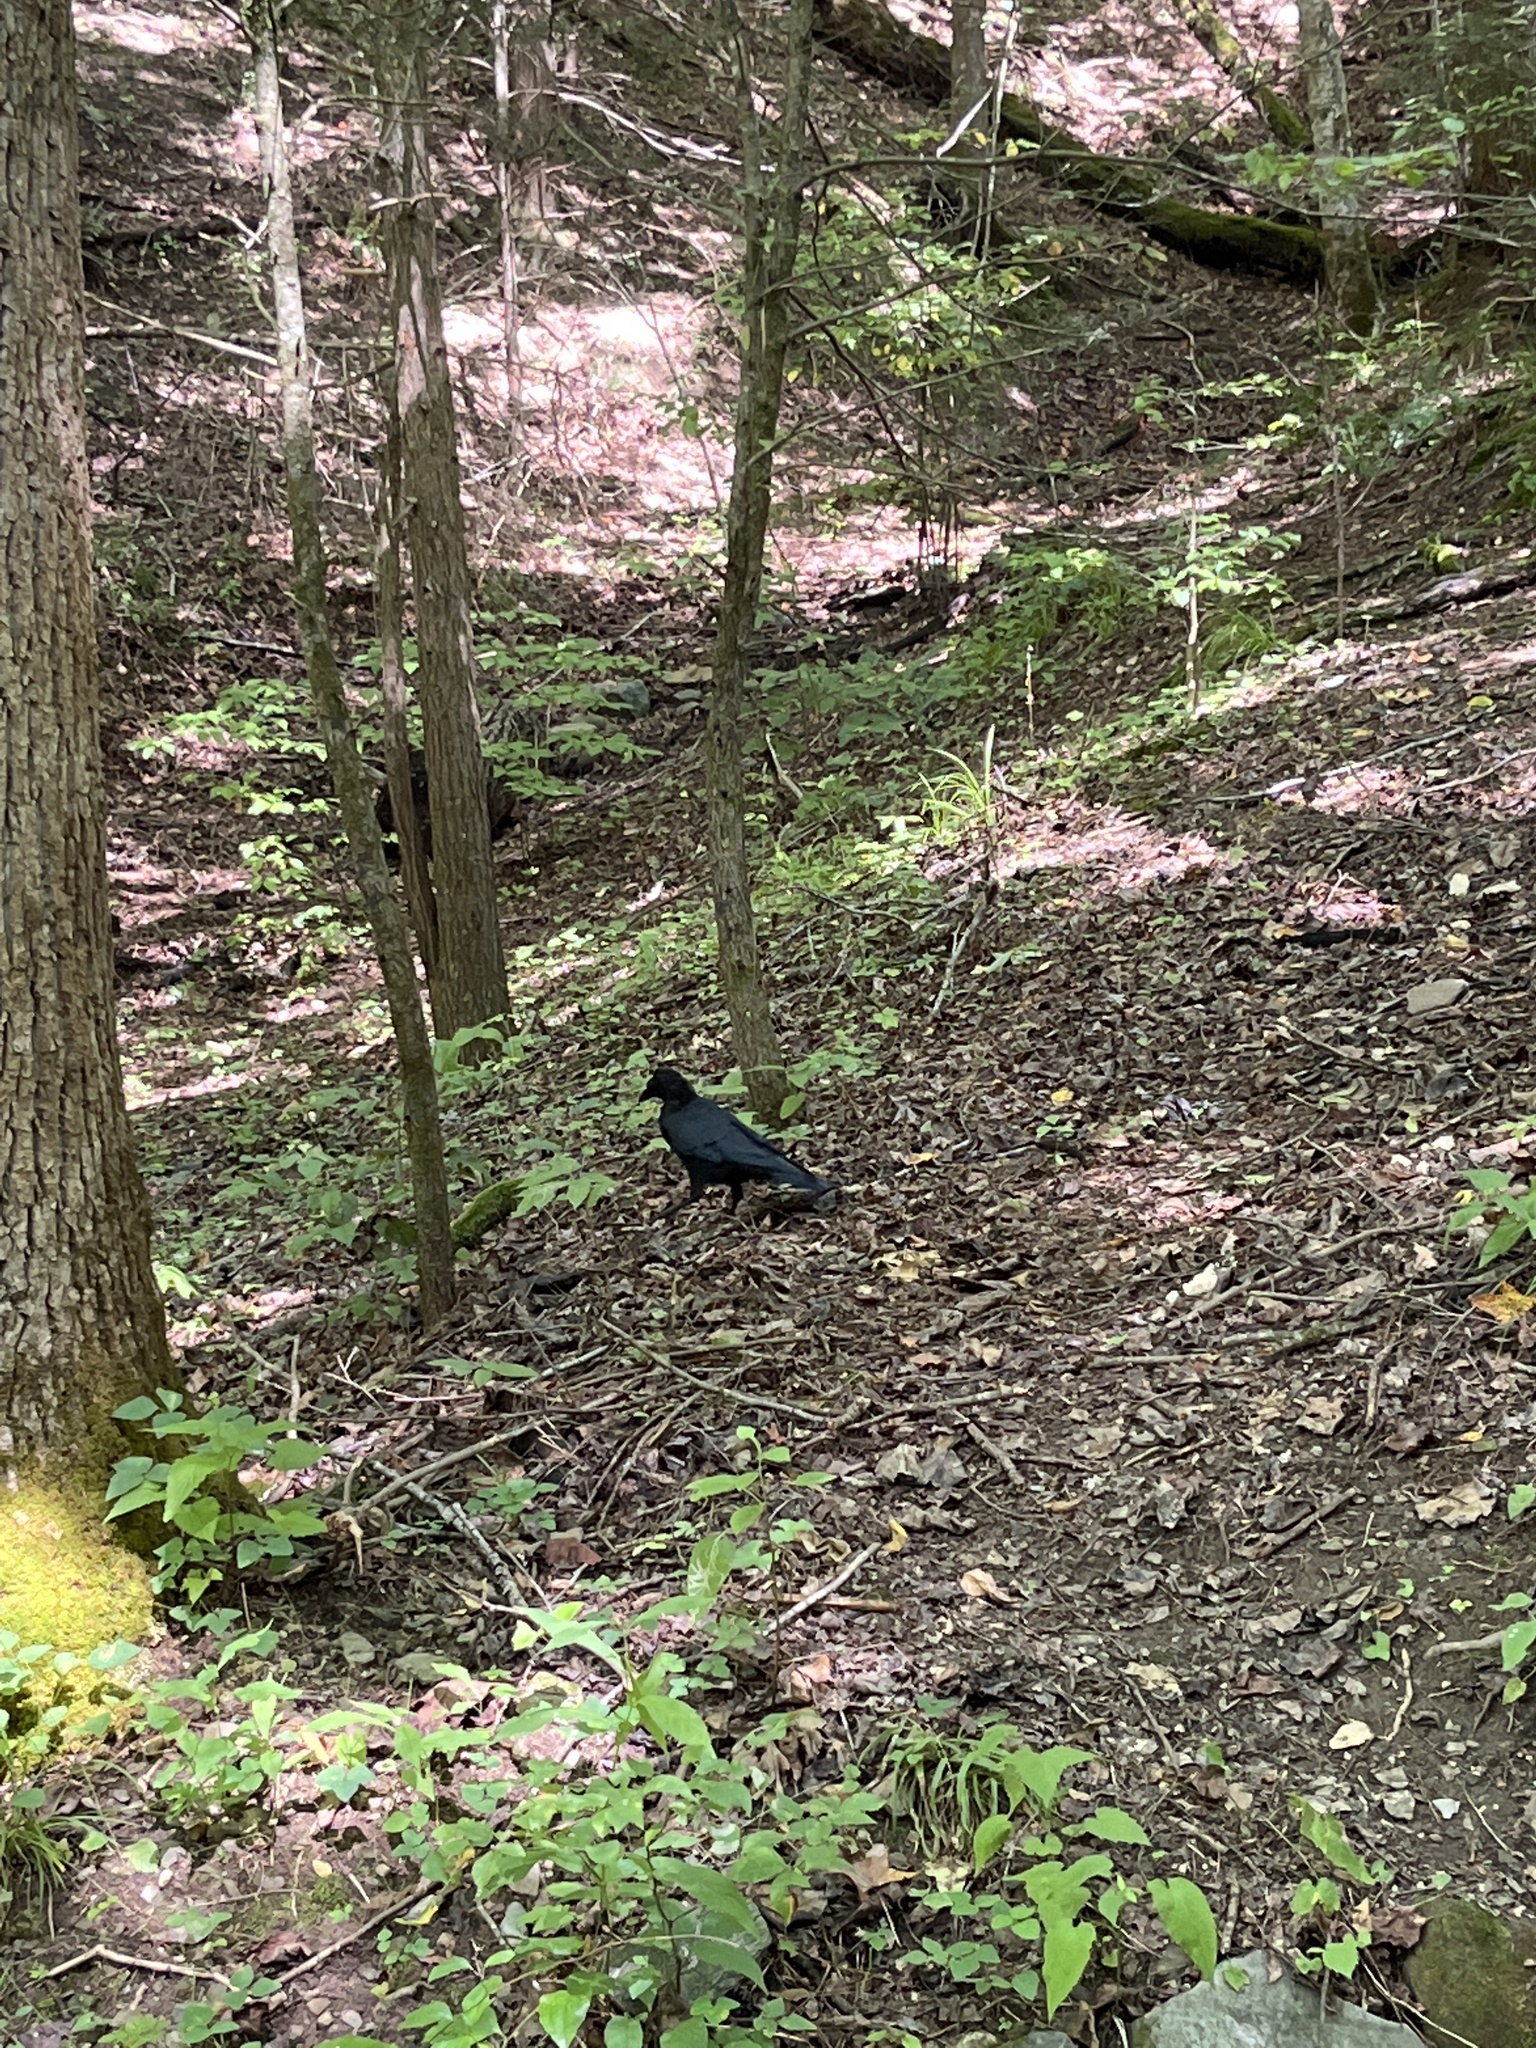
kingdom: Animalia
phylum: Chordata
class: Aves
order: Passeriformes
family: Corvidae
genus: Corvus
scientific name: Corvus brachyrhynchos
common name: American crow
